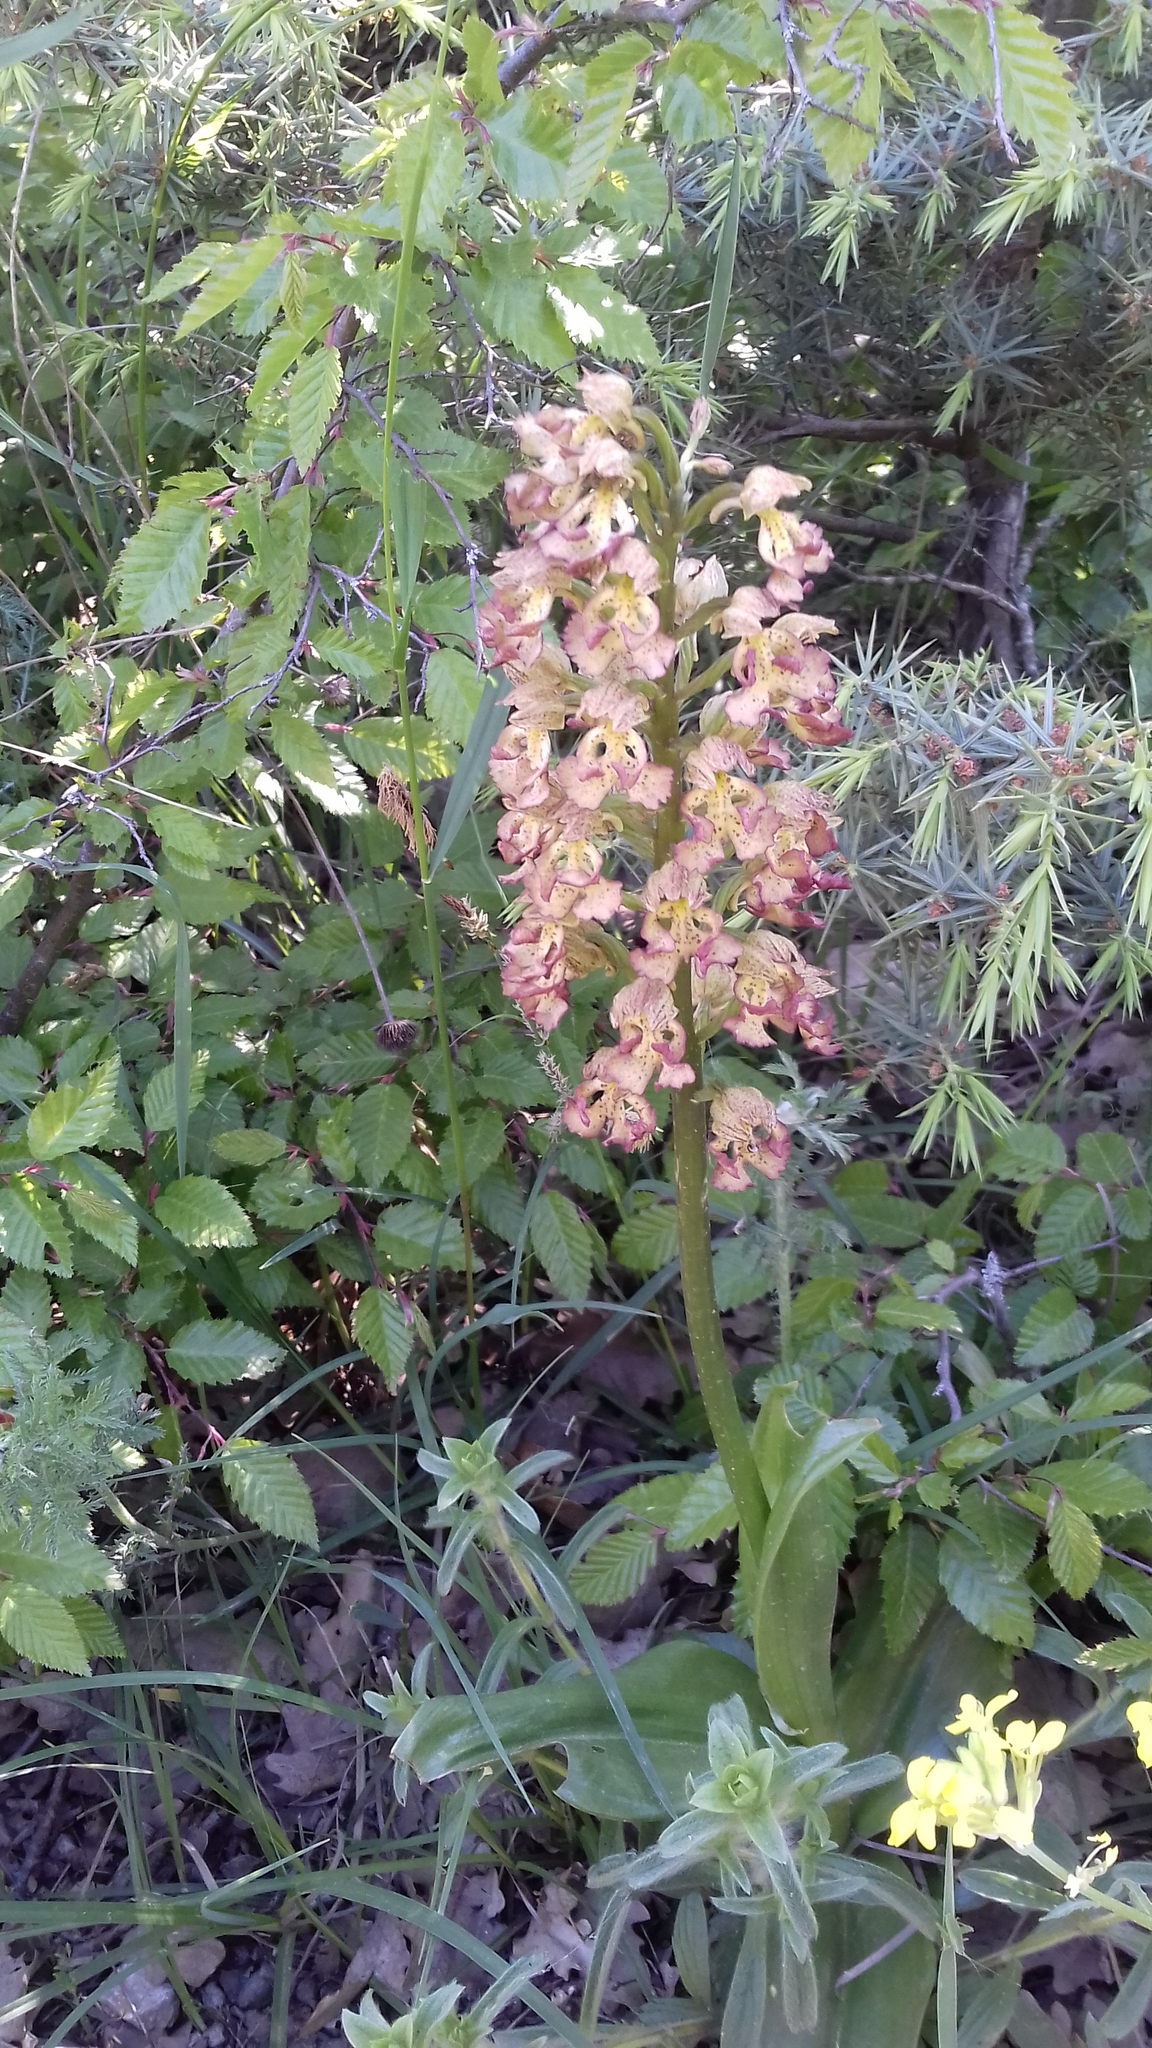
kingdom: Plantae
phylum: Tracheophyta
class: Liliopsida
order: Asparagales
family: Orchidaceae
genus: Orchis
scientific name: Orchis wulffiana
